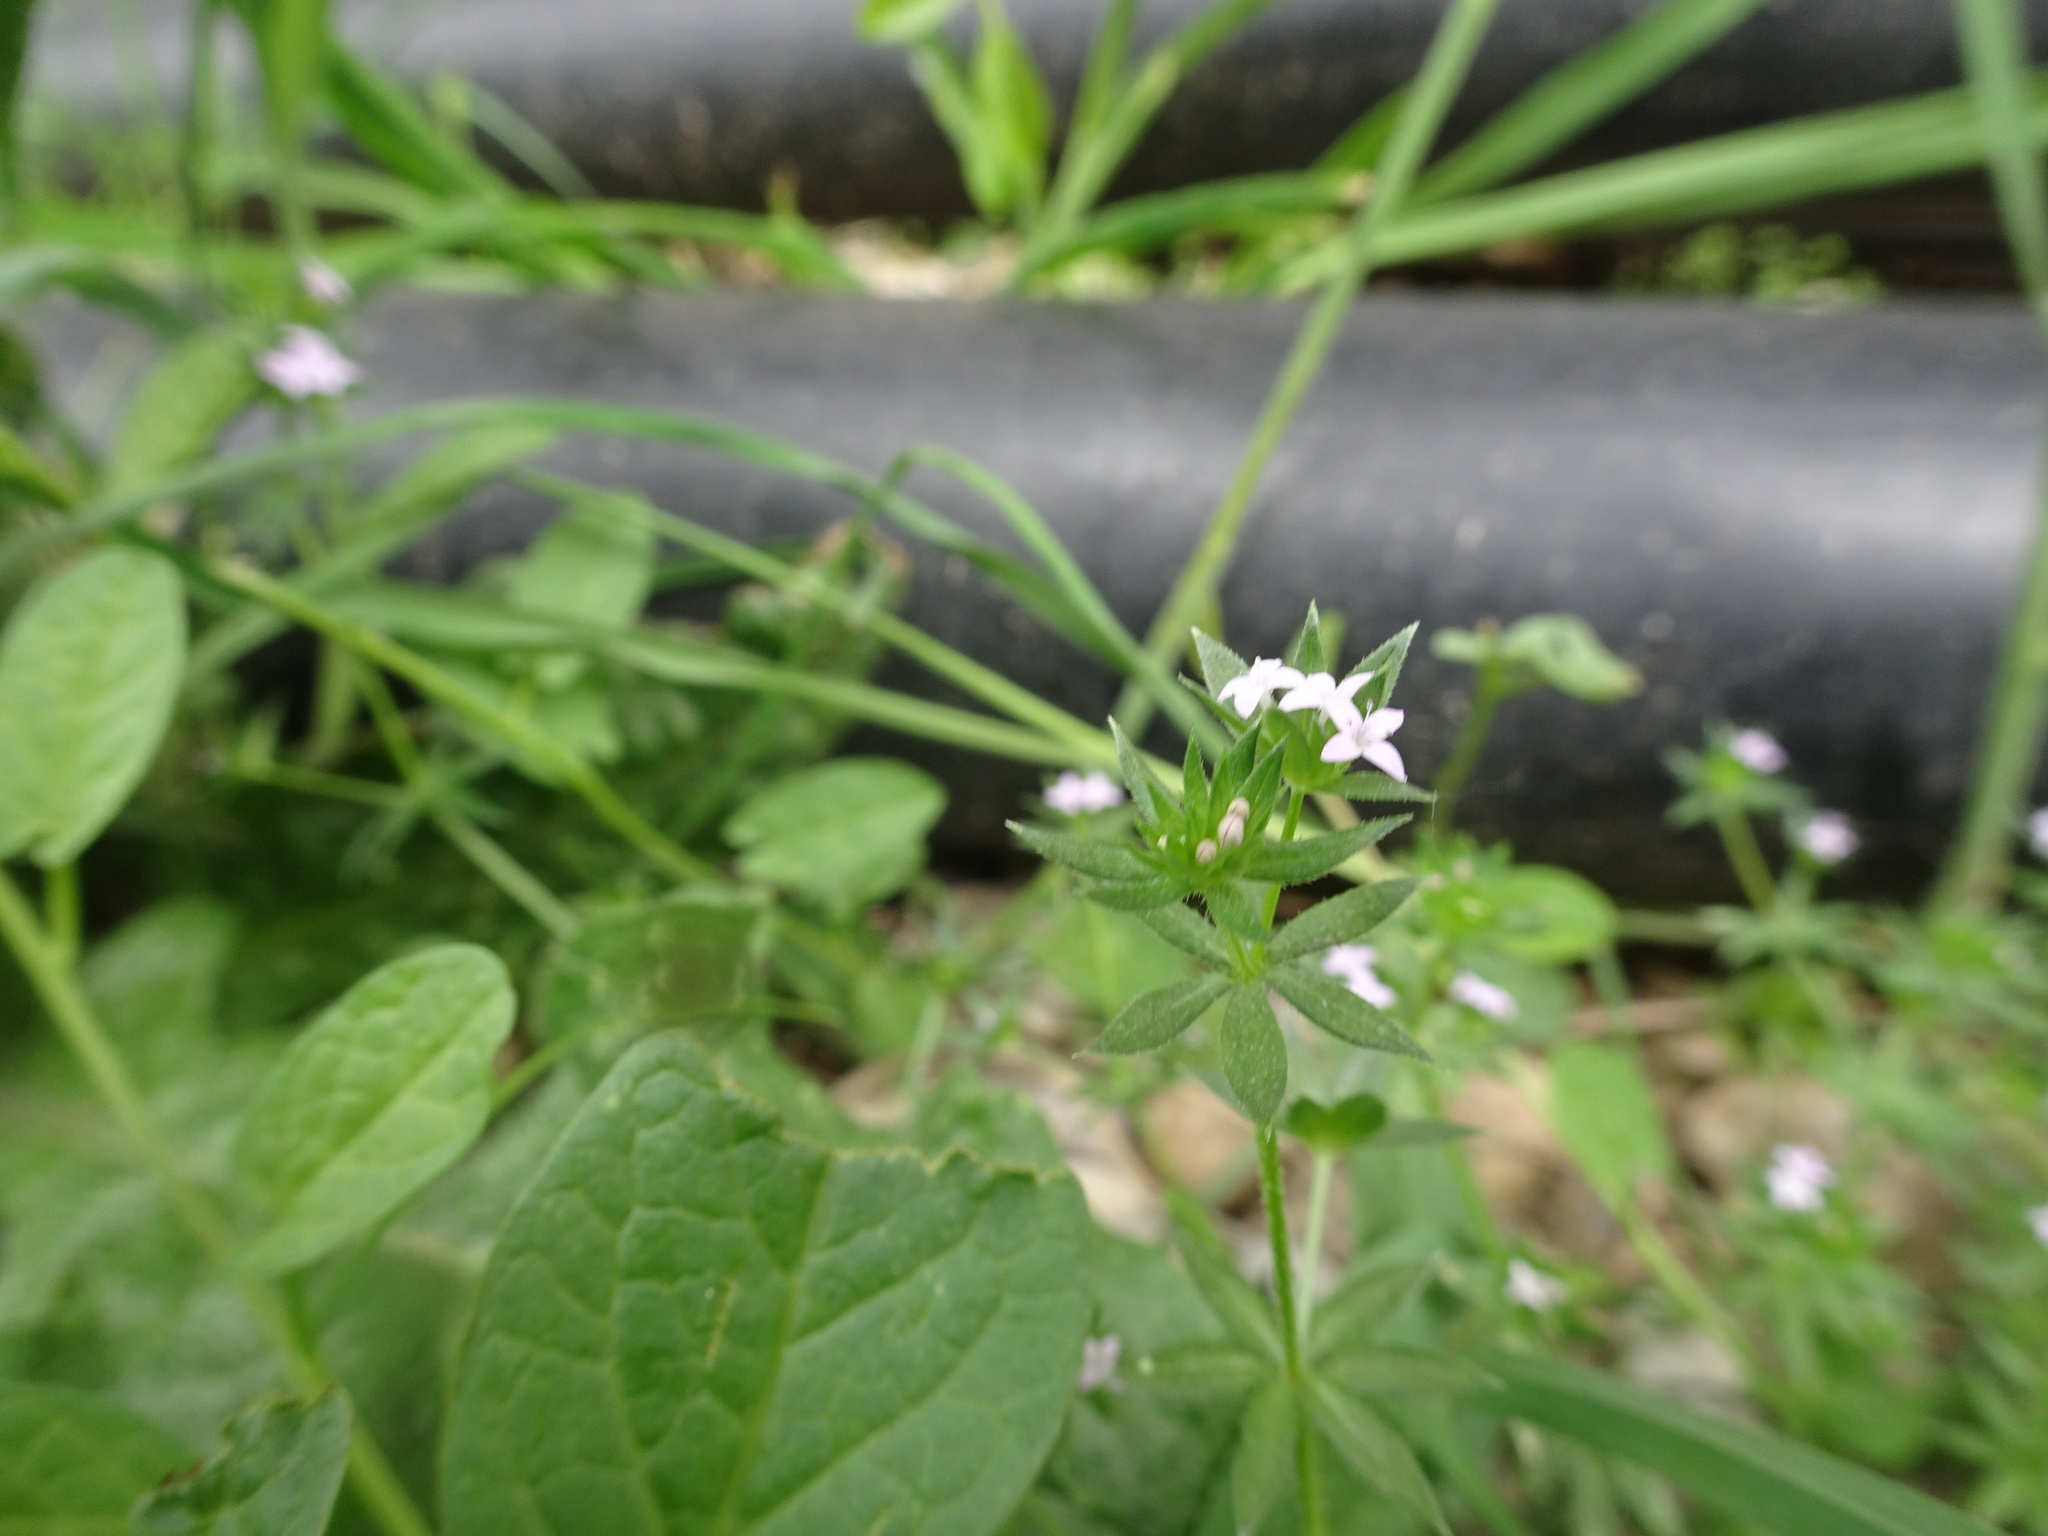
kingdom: Plantae
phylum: Tracheophyta
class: Magnoliopsida
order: Gentianales
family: Rubiaceae
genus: Sherardia
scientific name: Sherardia arvensis
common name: Field madder
